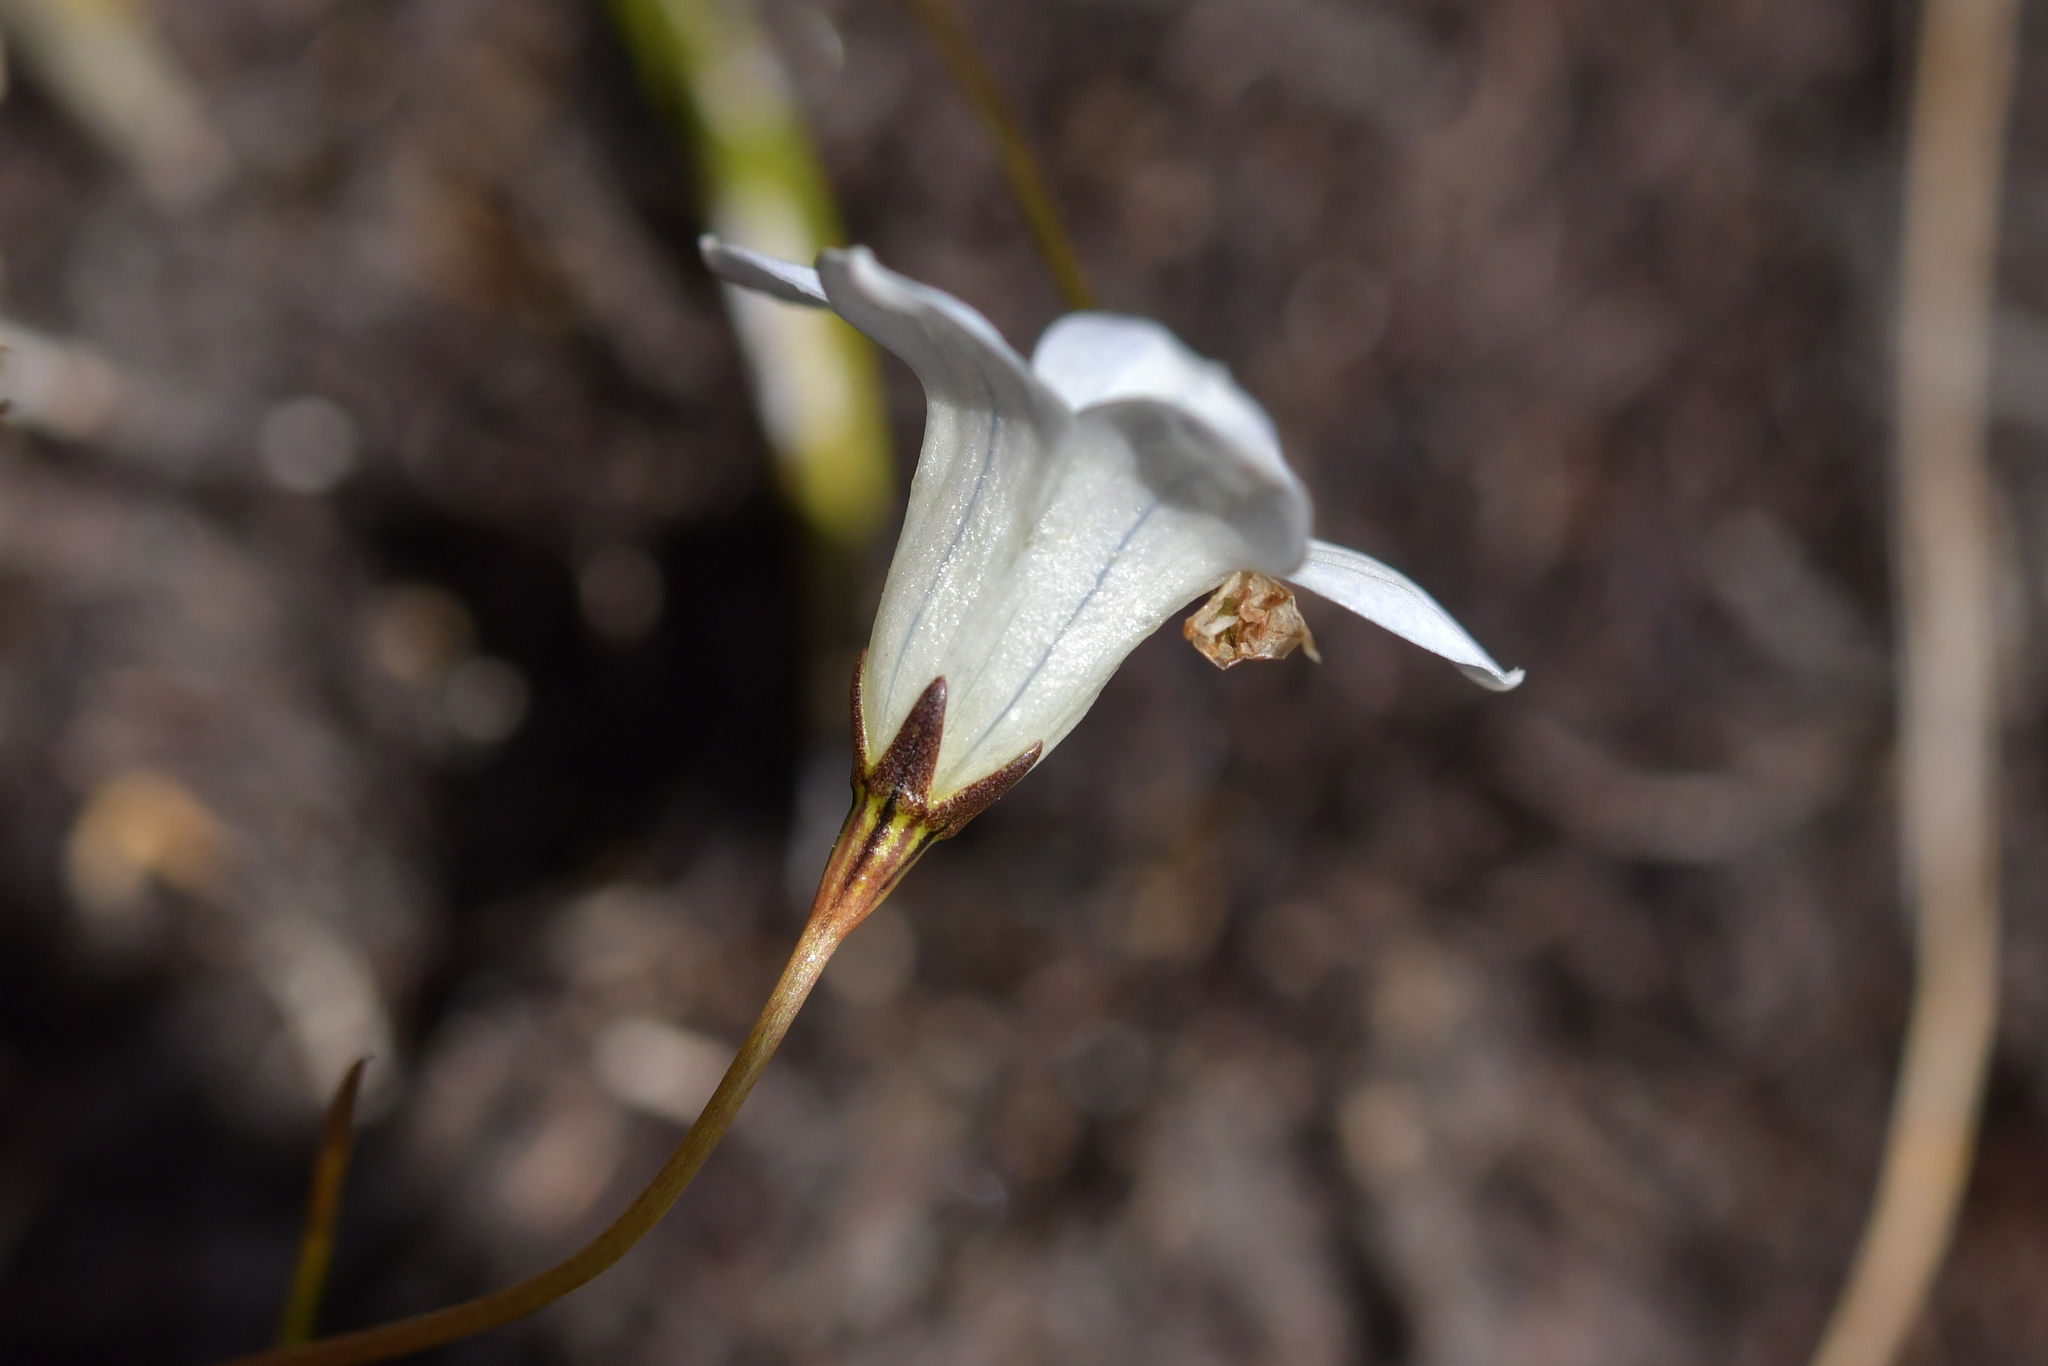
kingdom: Plantae
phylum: Tracheophyta
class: Magnoliopsida
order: Asterales
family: Campanulaceae
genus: Wahlenbergia
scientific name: Wahlenbergia albomarginata
